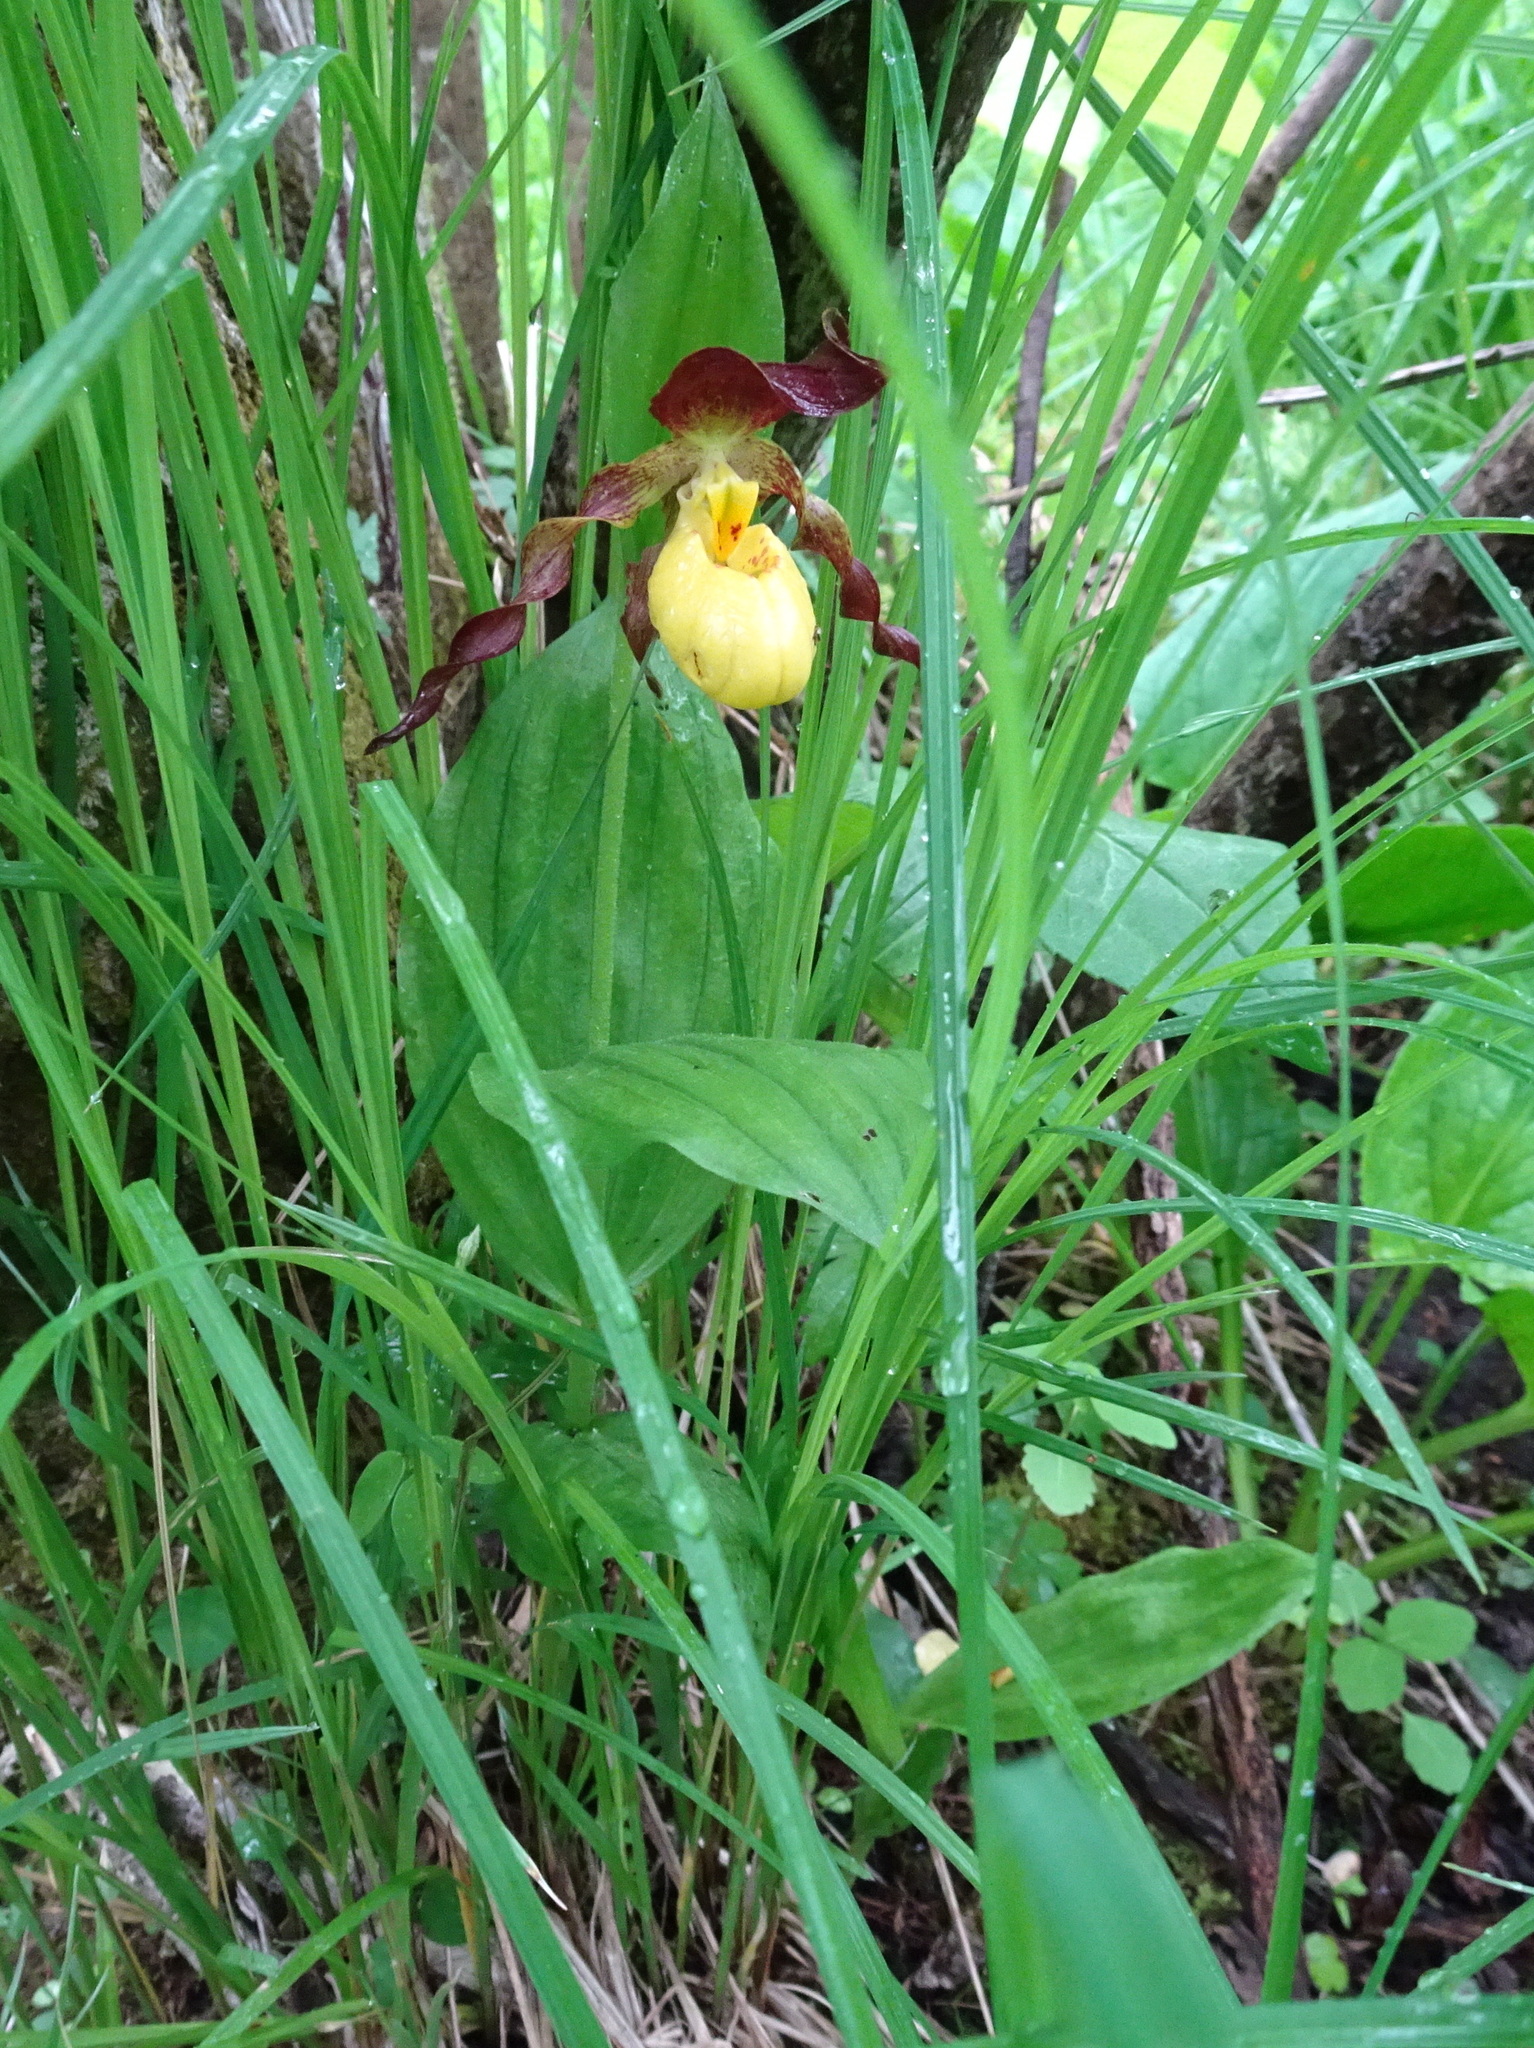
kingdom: Plantae
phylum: Tracheophyta
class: Liliopsida
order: Asparagales
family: Orchidaceae
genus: Cypripedium
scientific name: Cypripedium parviflorum
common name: American yellow lady's-slipper
